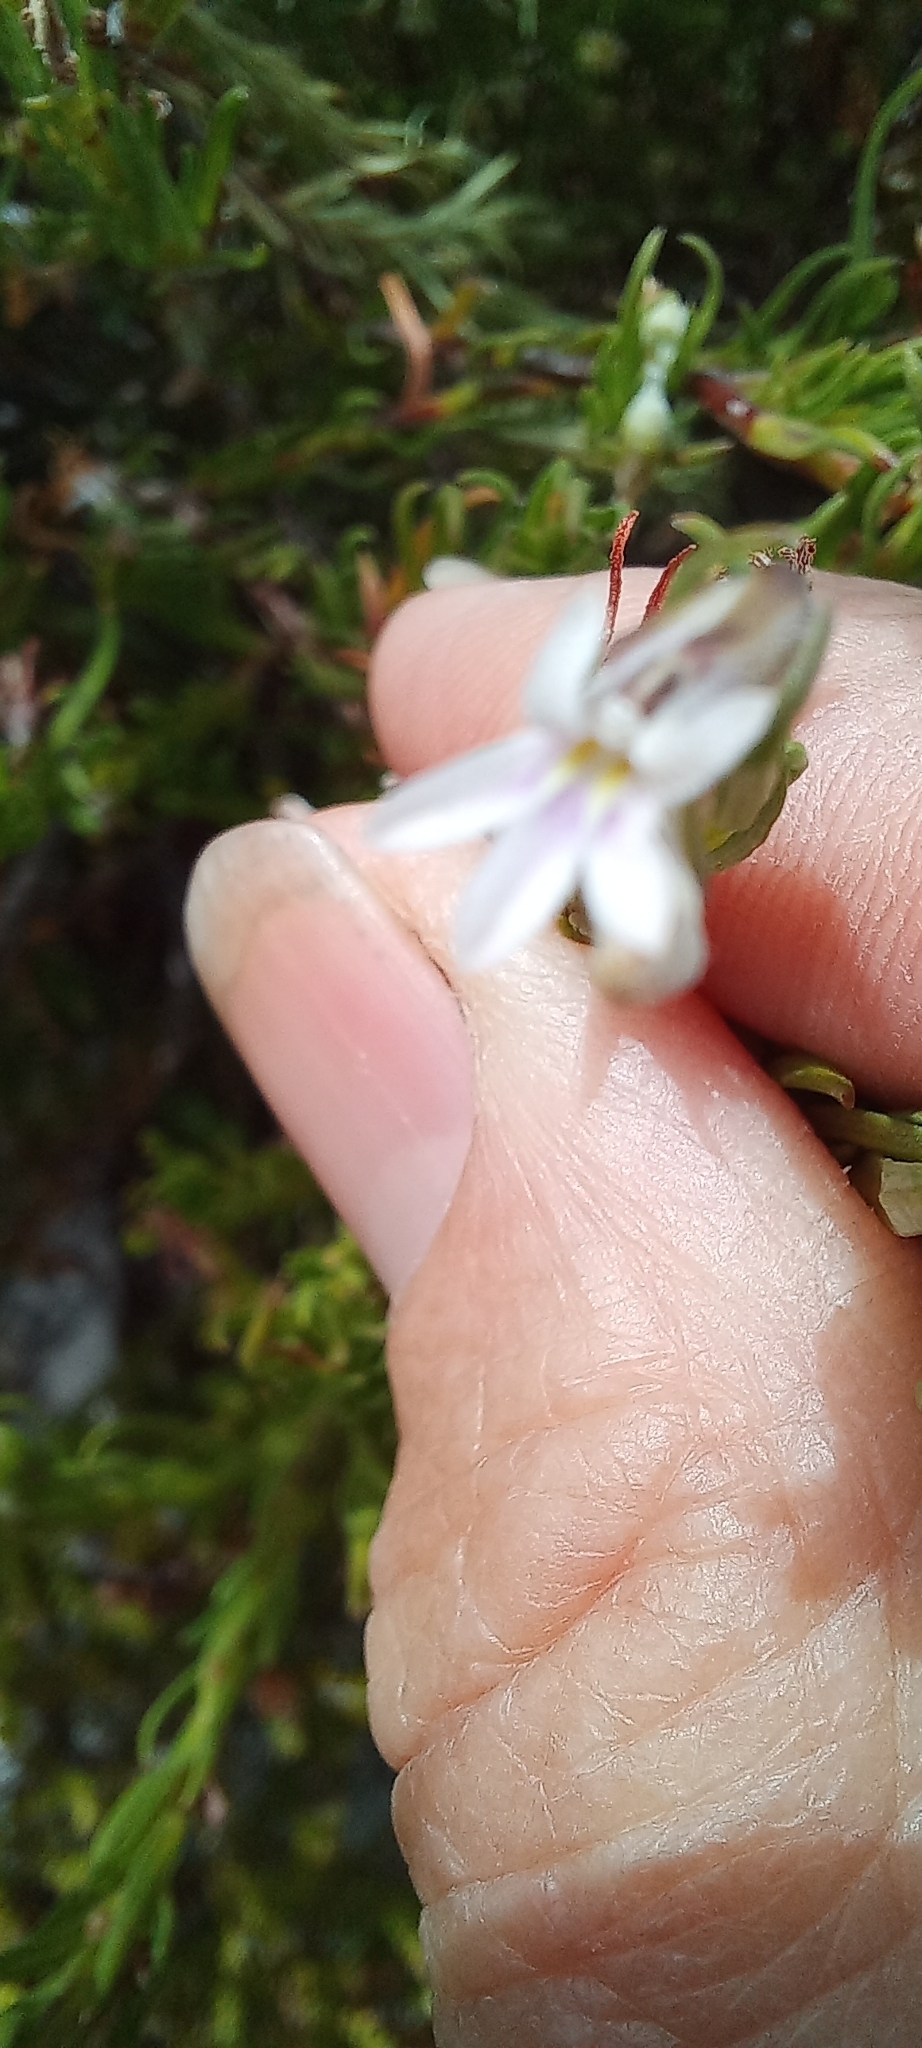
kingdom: Plantae
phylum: Tracheophyta
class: Magnoliopsida
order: Asterales
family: Campanulaceae
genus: Lobelia
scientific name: Lobelia pinifolia
